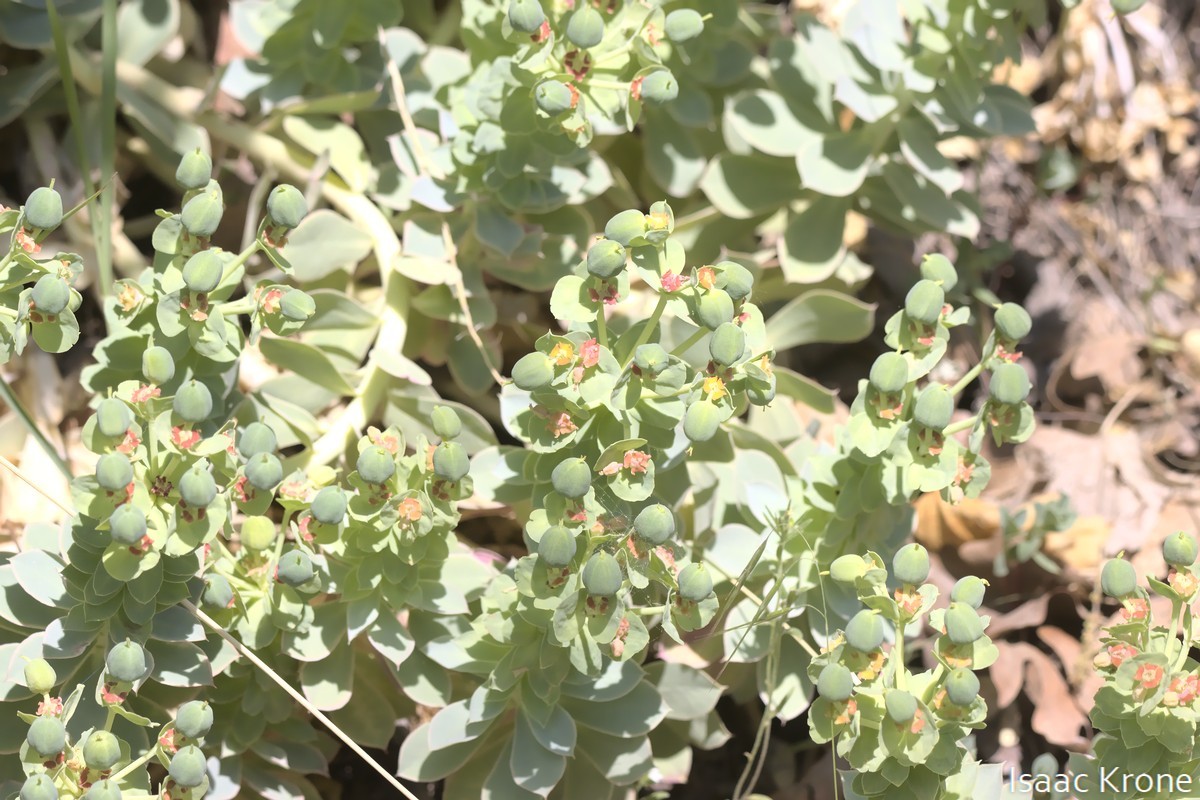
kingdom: Plantae
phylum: Tracheophyta
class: Magnoliopsida
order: Malpighiales
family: Euphorbiaceae
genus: Euphorbia
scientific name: Euphorbia myrsinites
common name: Myrtle spurge
